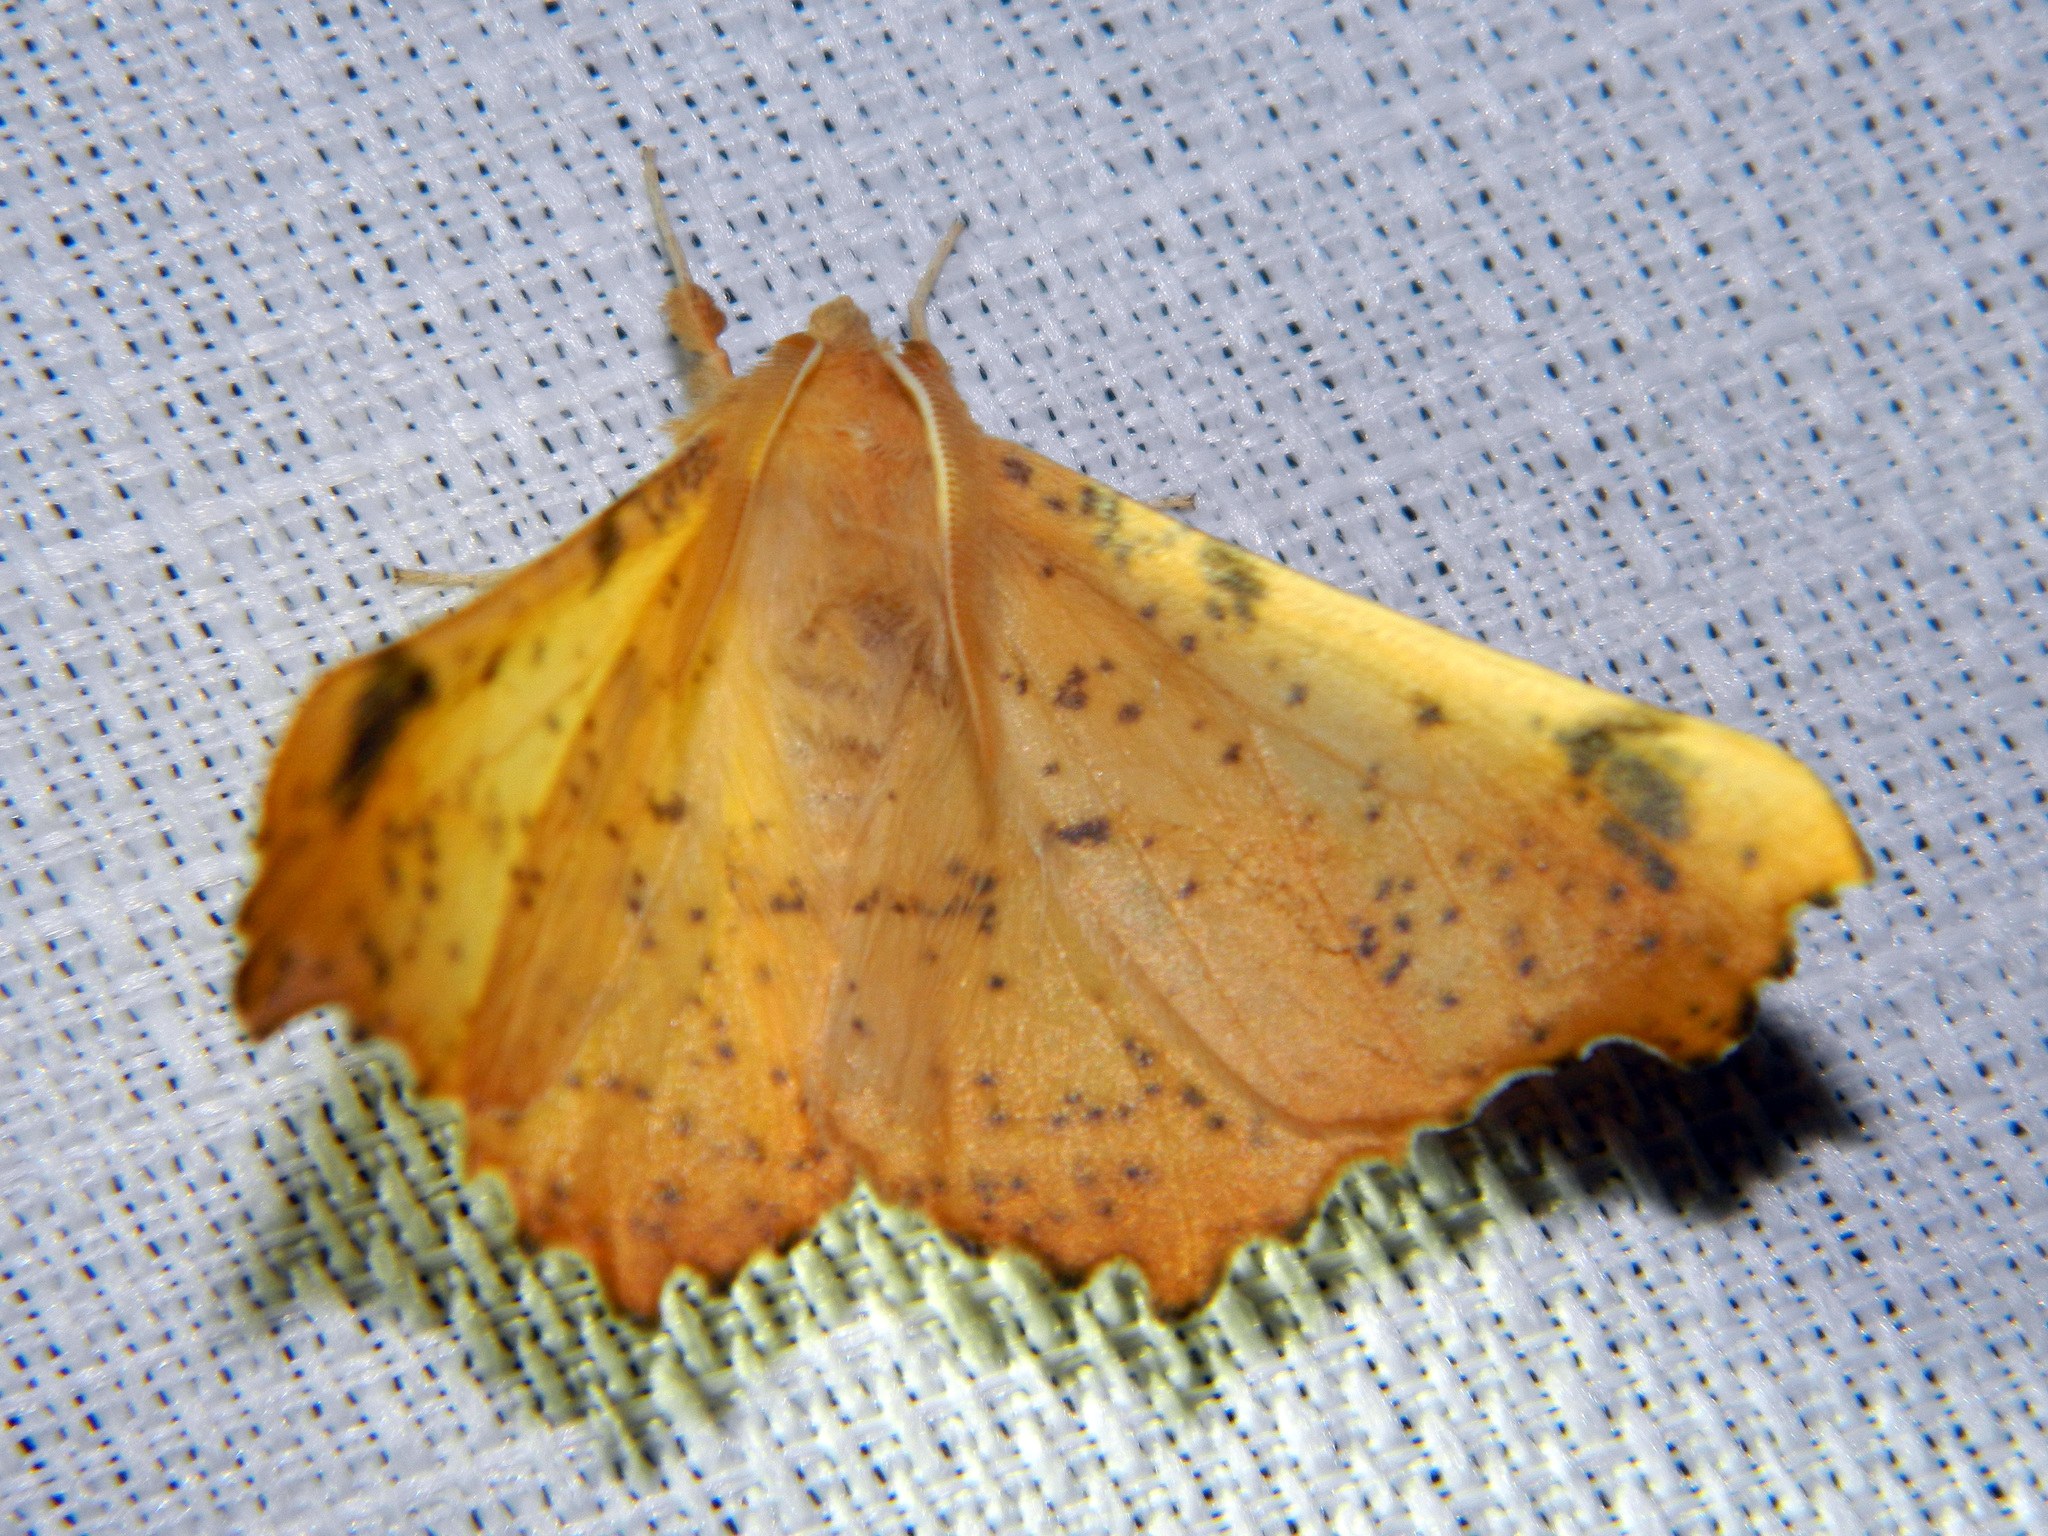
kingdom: Animalia
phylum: Arthropoda
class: Insecta
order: Lepidoptera
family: Geometridae
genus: Ennomos
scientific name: Ennomos magnaria
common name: Maple spanworm
